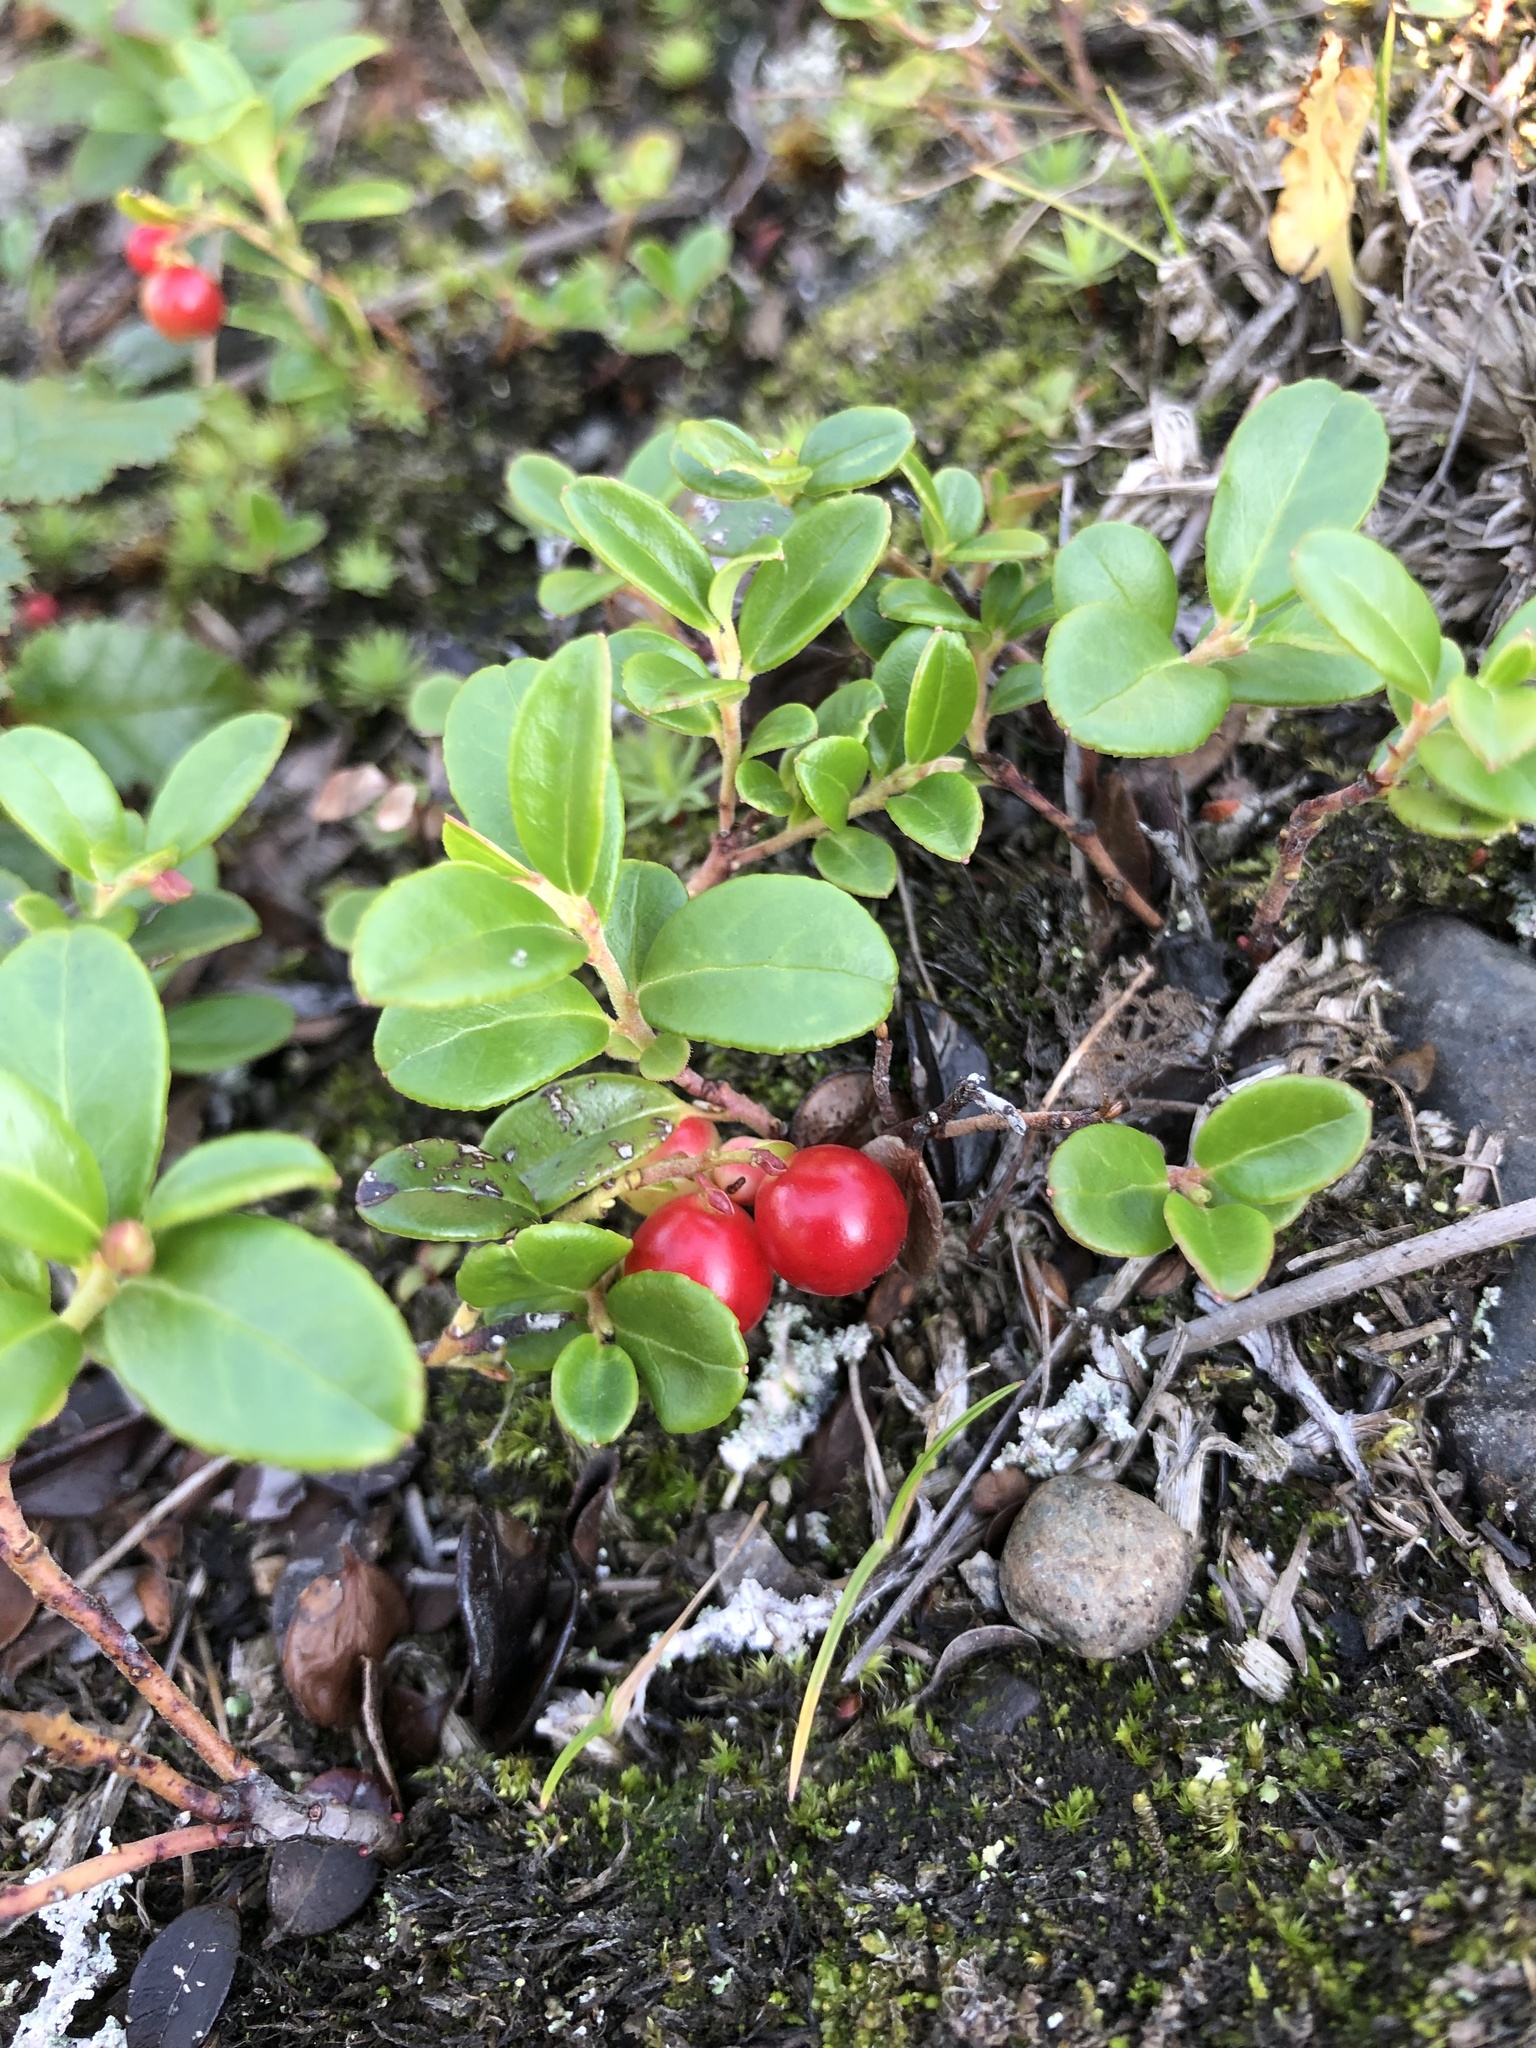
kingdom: Plantae
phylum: Tracheophyta
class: Magnoliopsida
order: Ericales
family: Ericaceae
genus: Vaccinium
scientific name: Vaccinium vitis-idaea
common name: Cowberry
